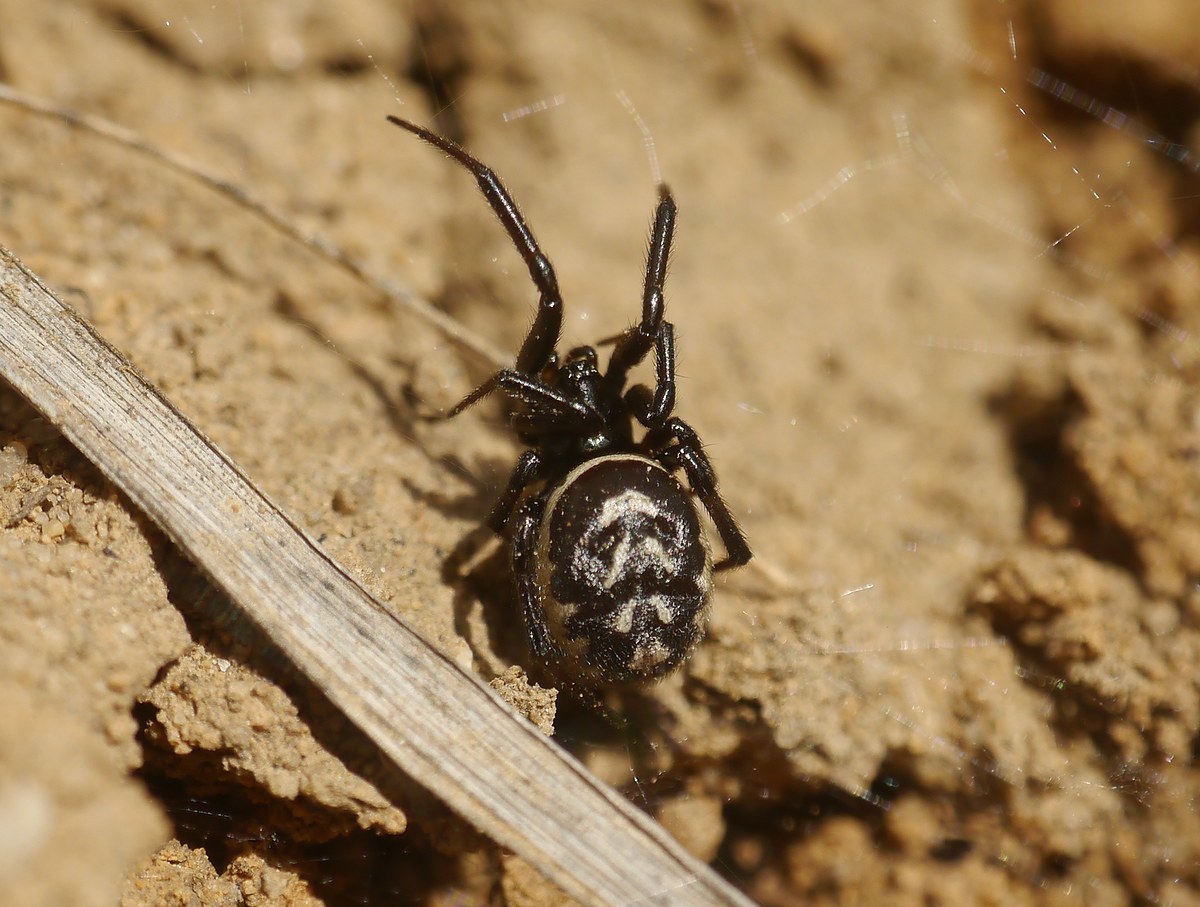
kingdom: Animalia
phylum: Arthropoda
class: Arachnida
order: Araneae
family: Theridiidae
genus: Steatoda
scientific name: Steatoda albomaculata
